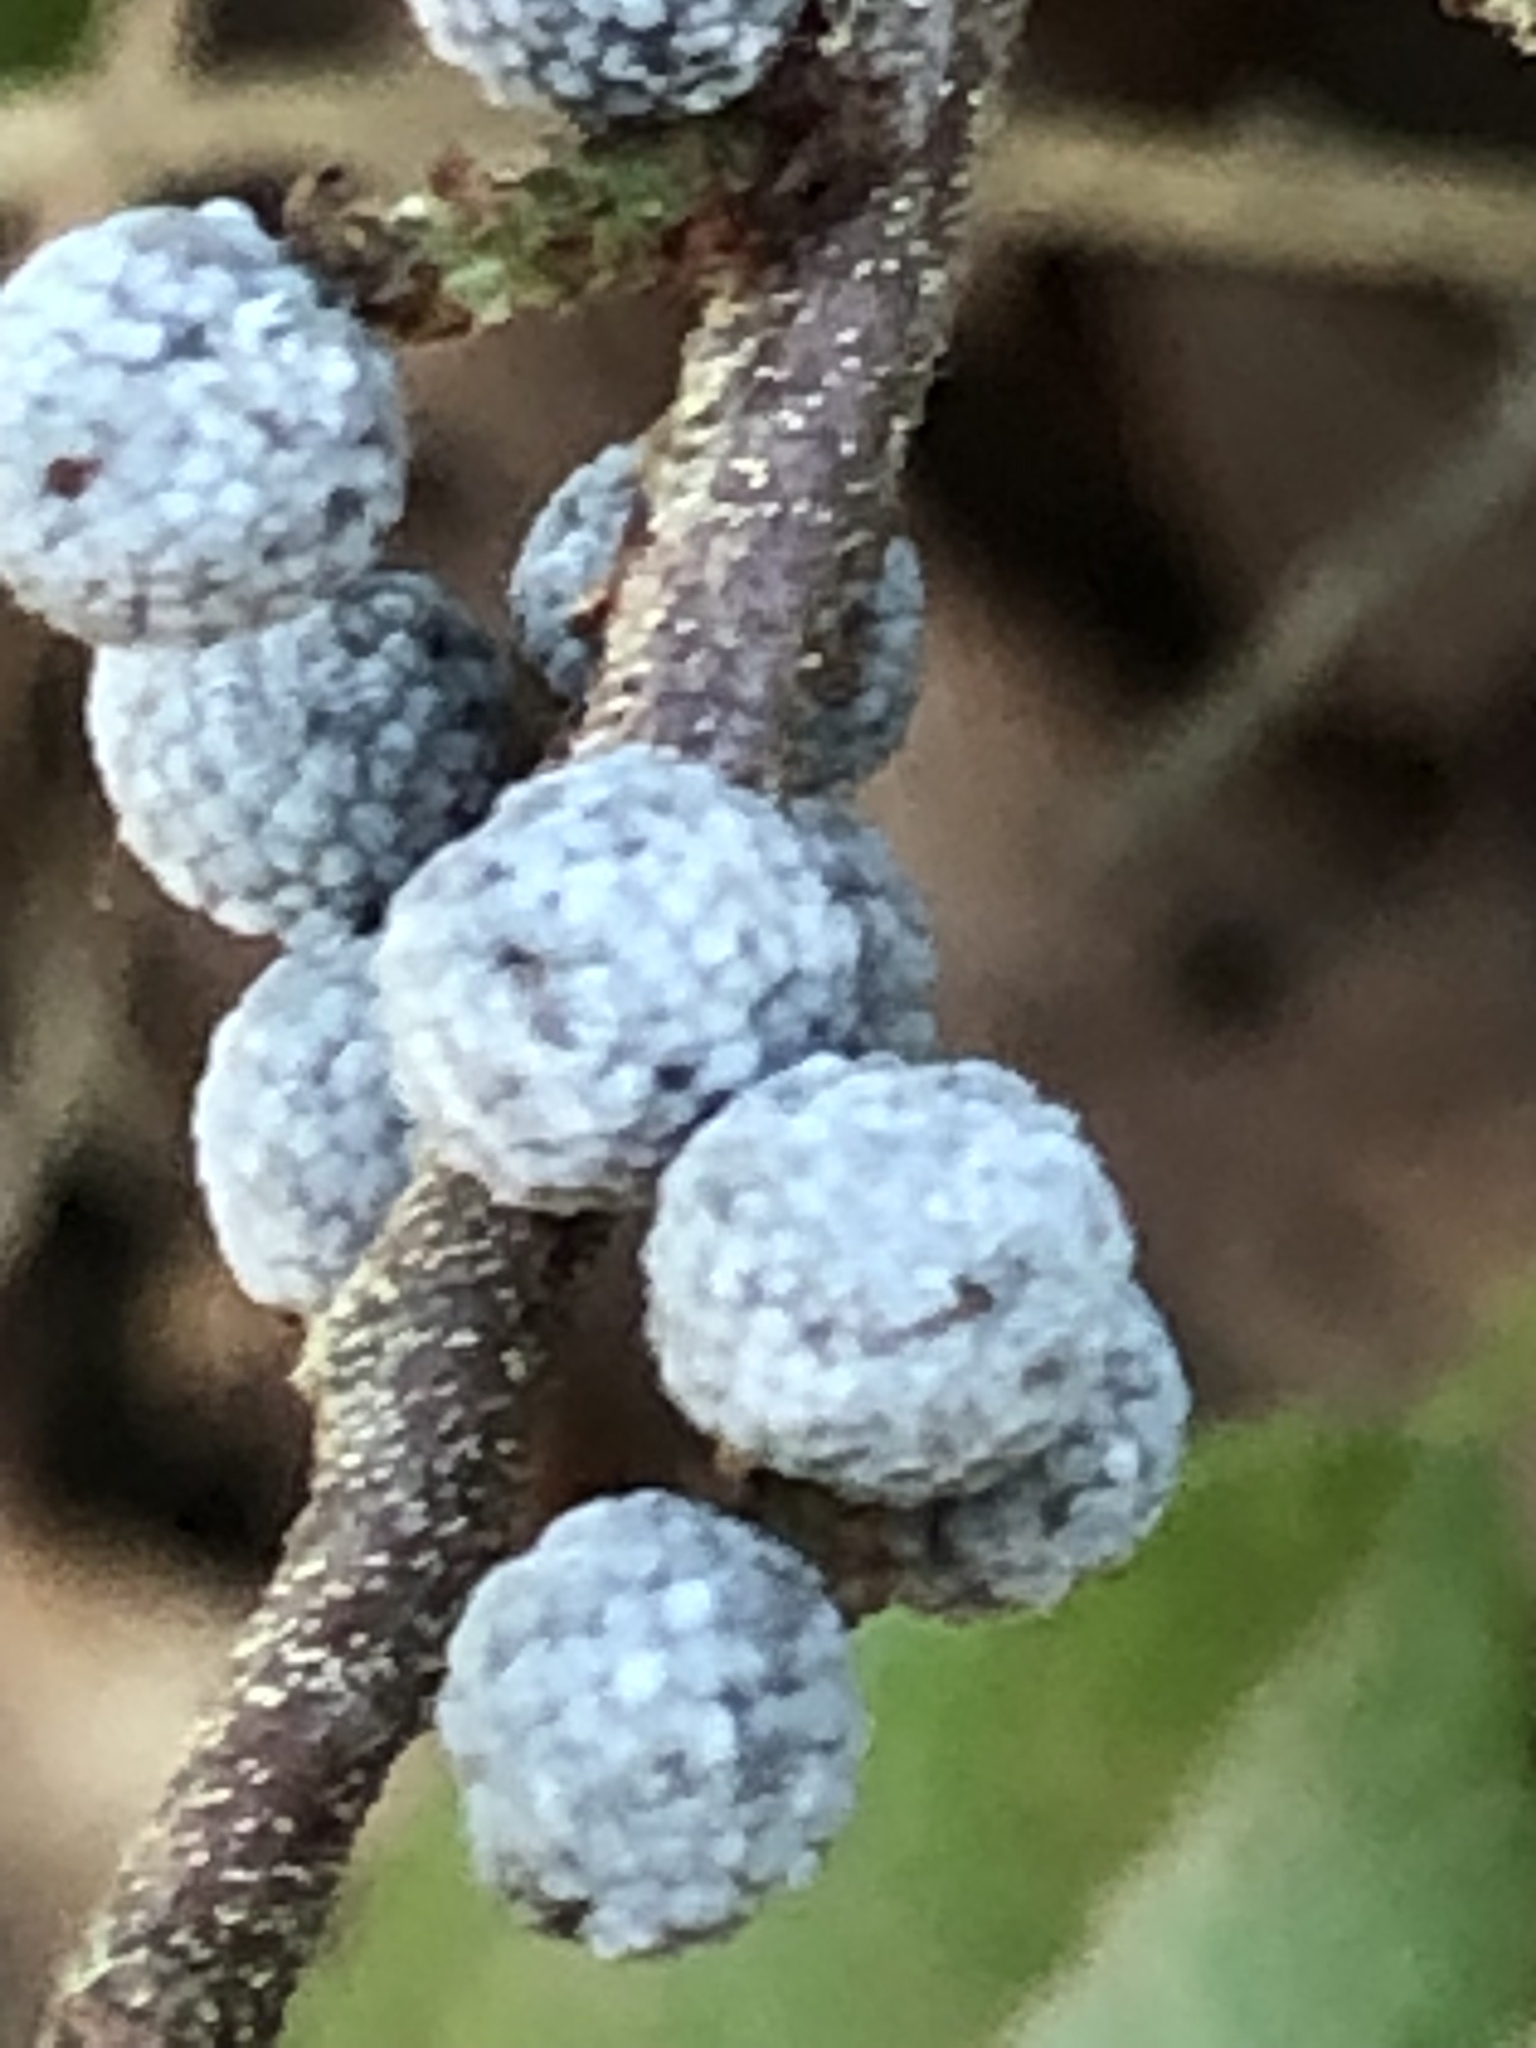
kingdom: Plantae
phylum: Tracheophyta
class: Magnoliopsida
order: Fagales
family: Myricaceae
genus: Morella
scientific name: Morella pensylvanica
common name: Northern bayberry
